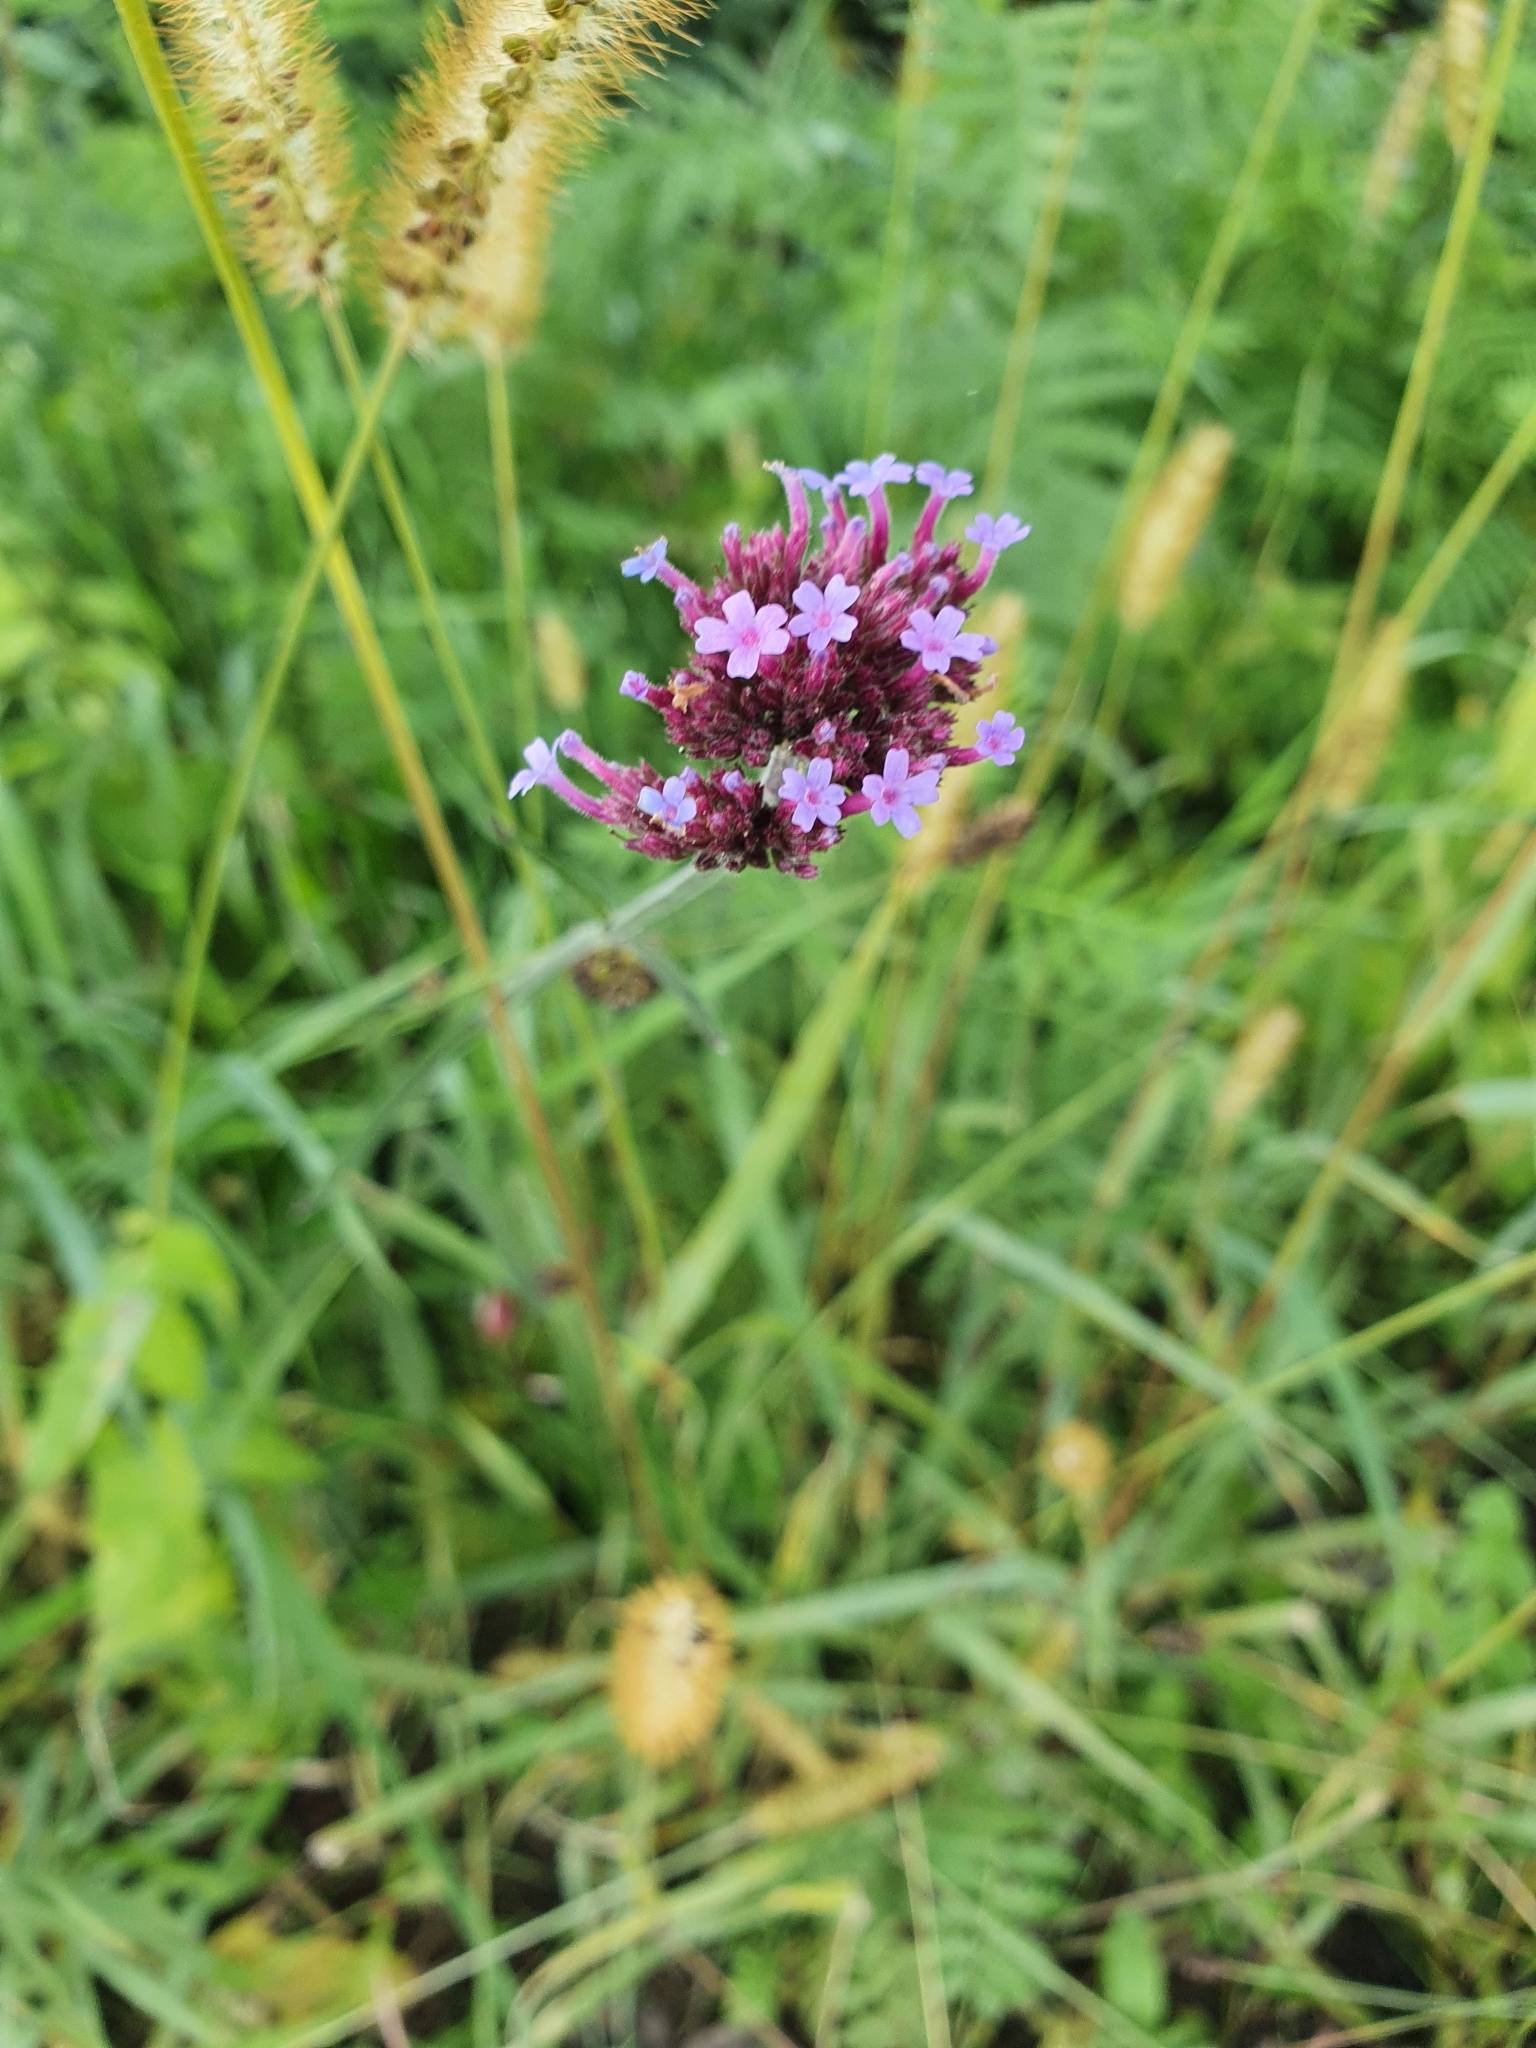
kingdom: Plantae
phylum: Tracheophyta
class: Magnoliopsida
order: Lamiales
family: Verbenaceae
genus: Verbena
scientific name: Verbena bonariensis
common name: Purpletop vervain
